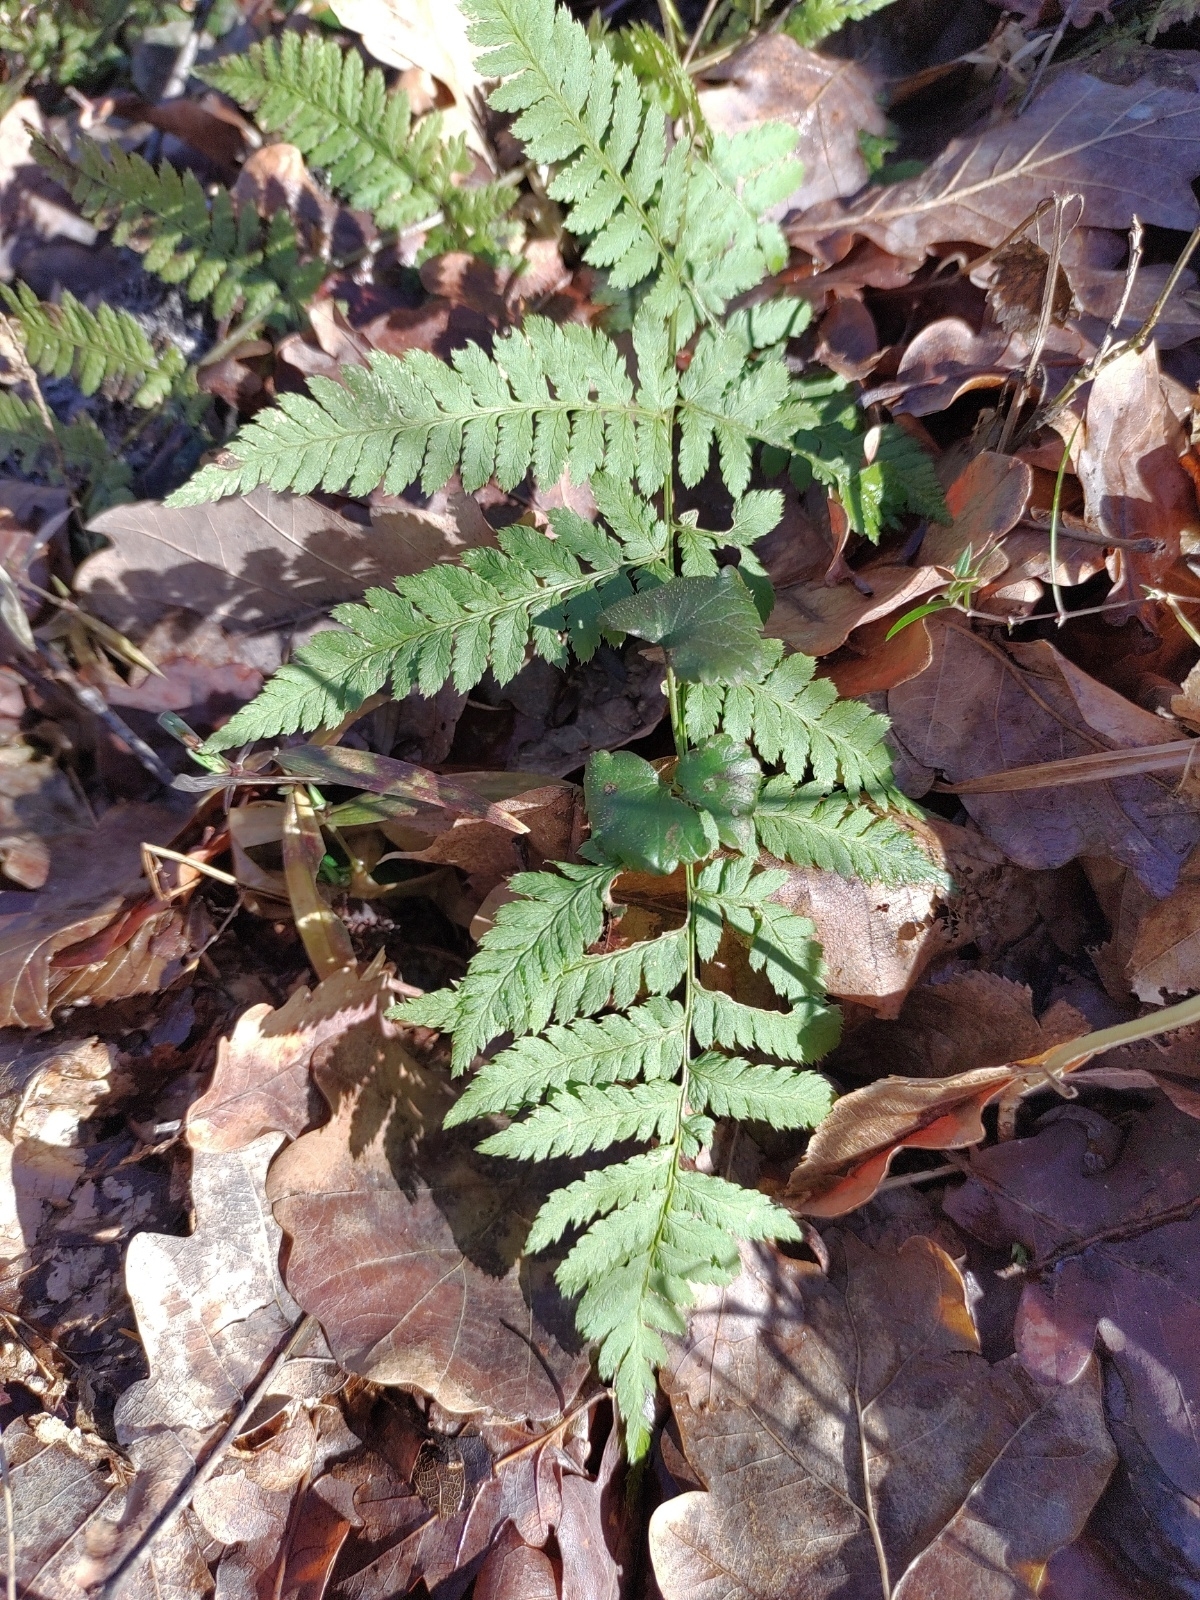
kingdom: Plantae
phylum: Tracheophyta
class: Polypodiopsida
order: Polypodiales
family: Dryopteridaceae
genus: Dryopteris
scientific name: Dryopteris carthusiana
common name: Narrow buckler-fern
